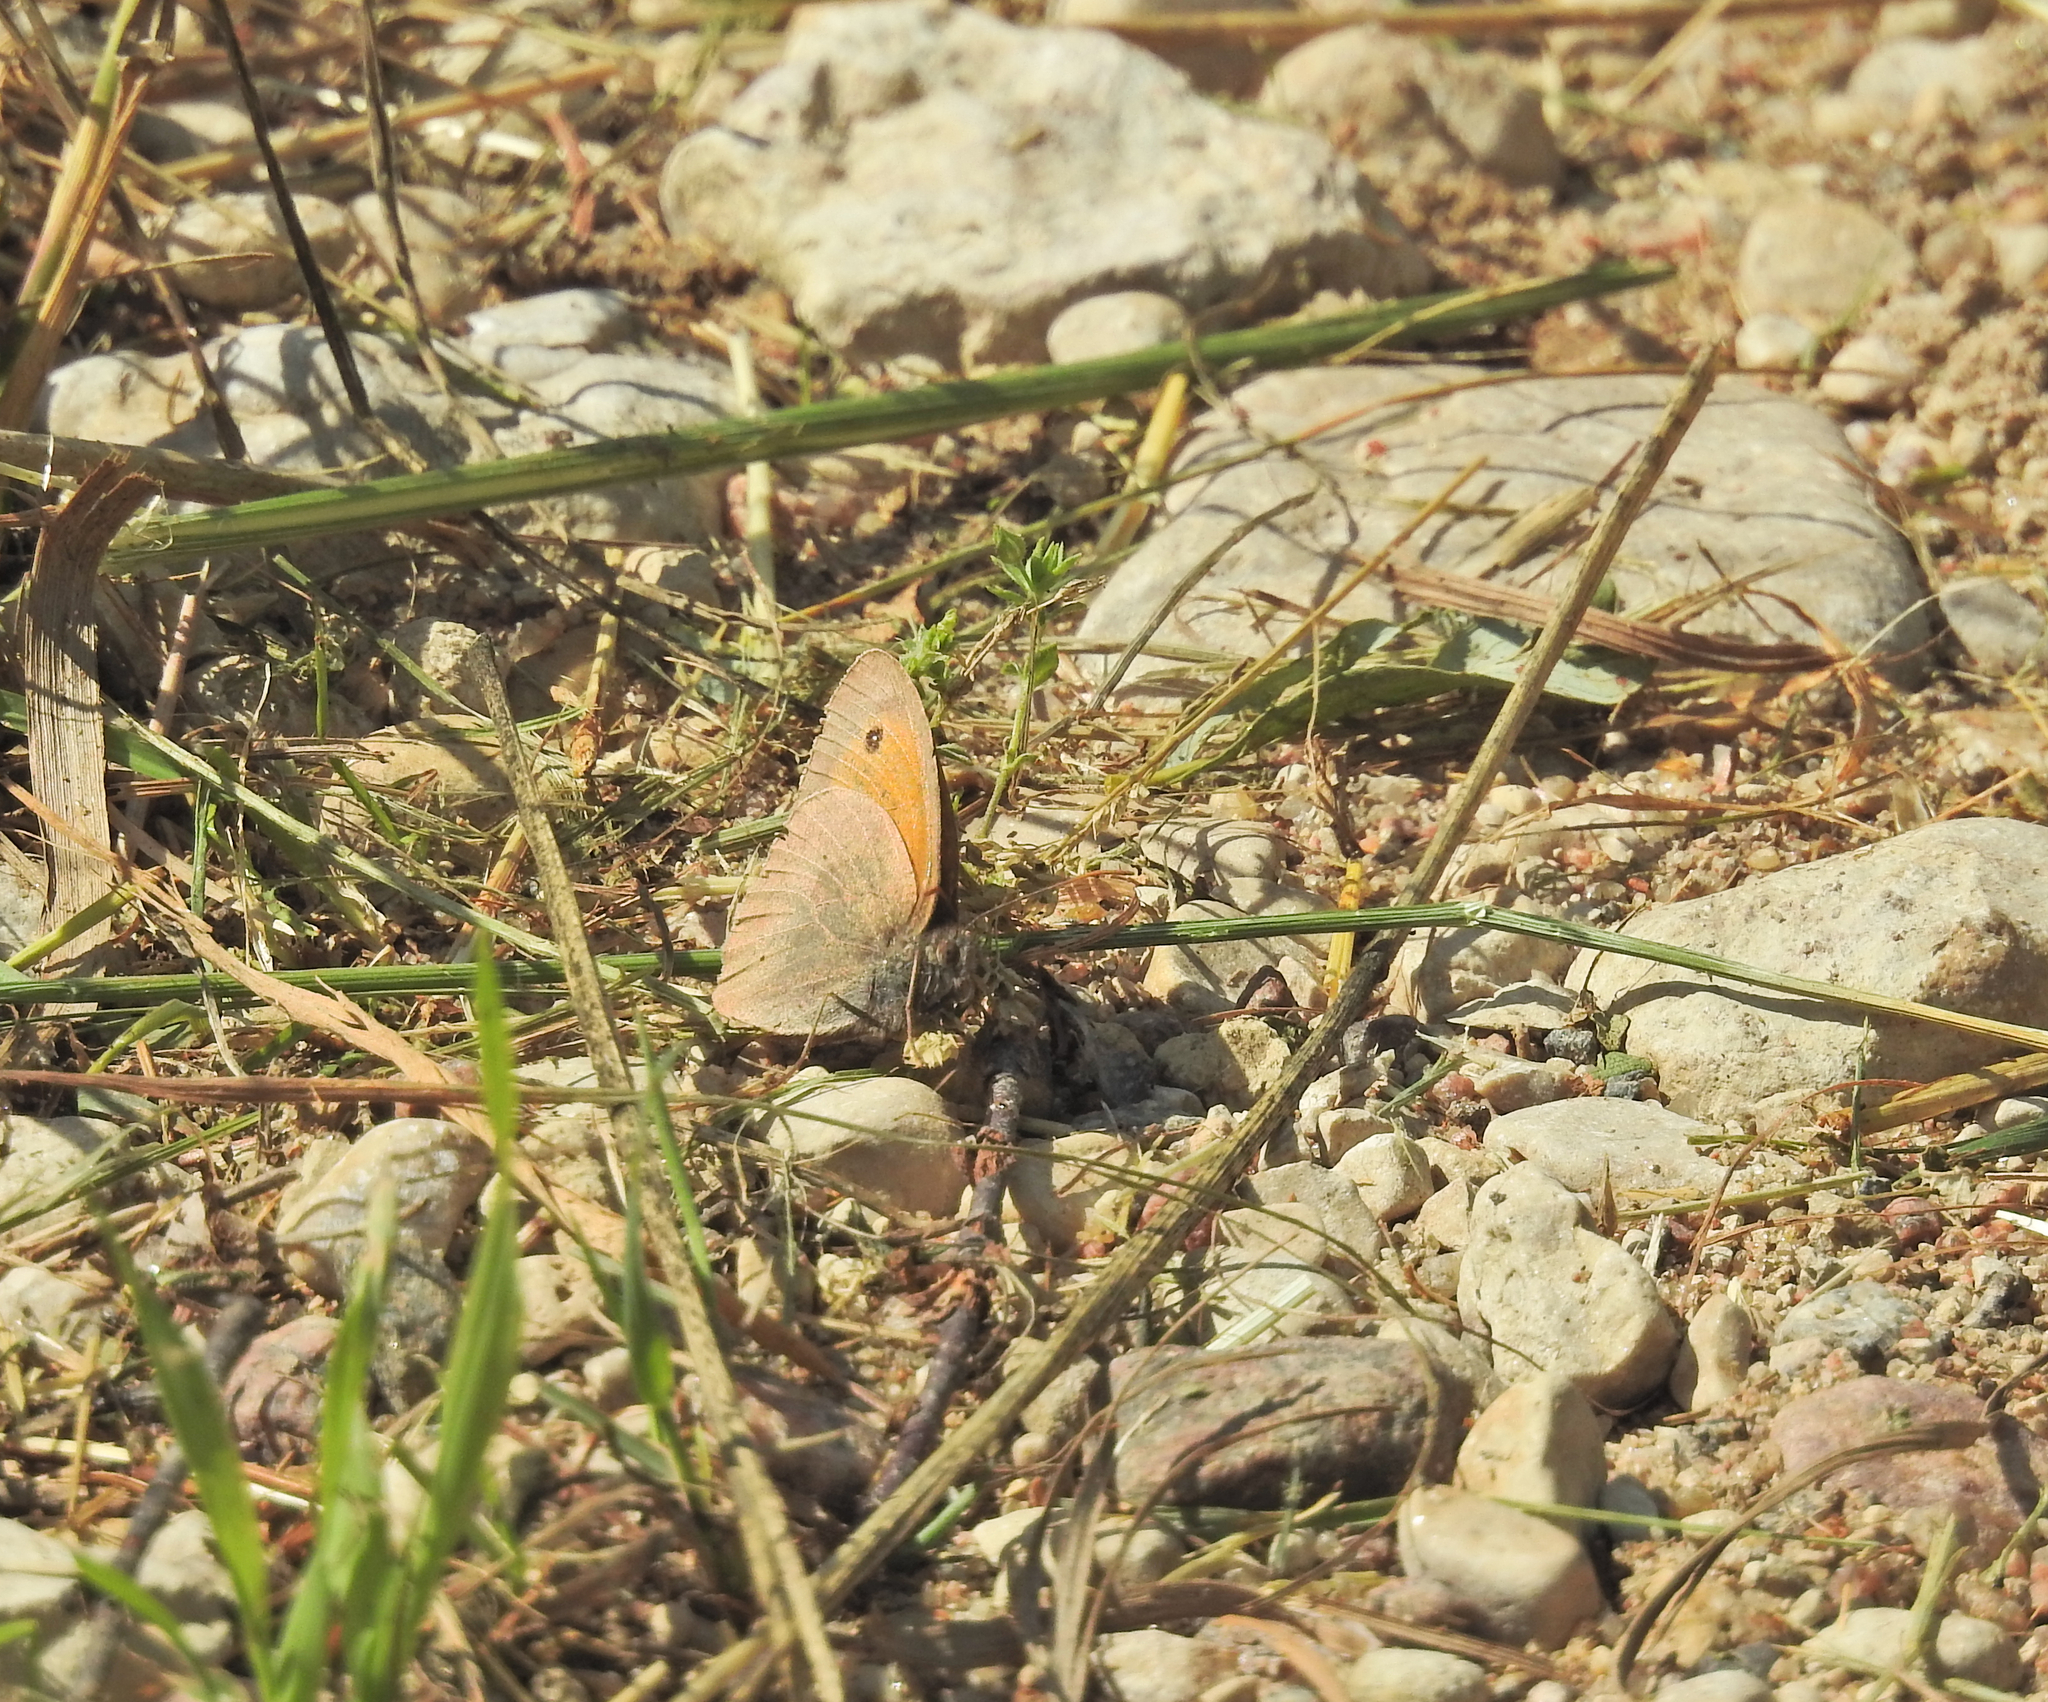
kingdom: Animalia
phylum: Arthropoda
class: Insecta
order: Lepidoptera
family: Nymphalidae
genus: Maniola
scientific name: Maniola jurtina
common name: Meadow brown
